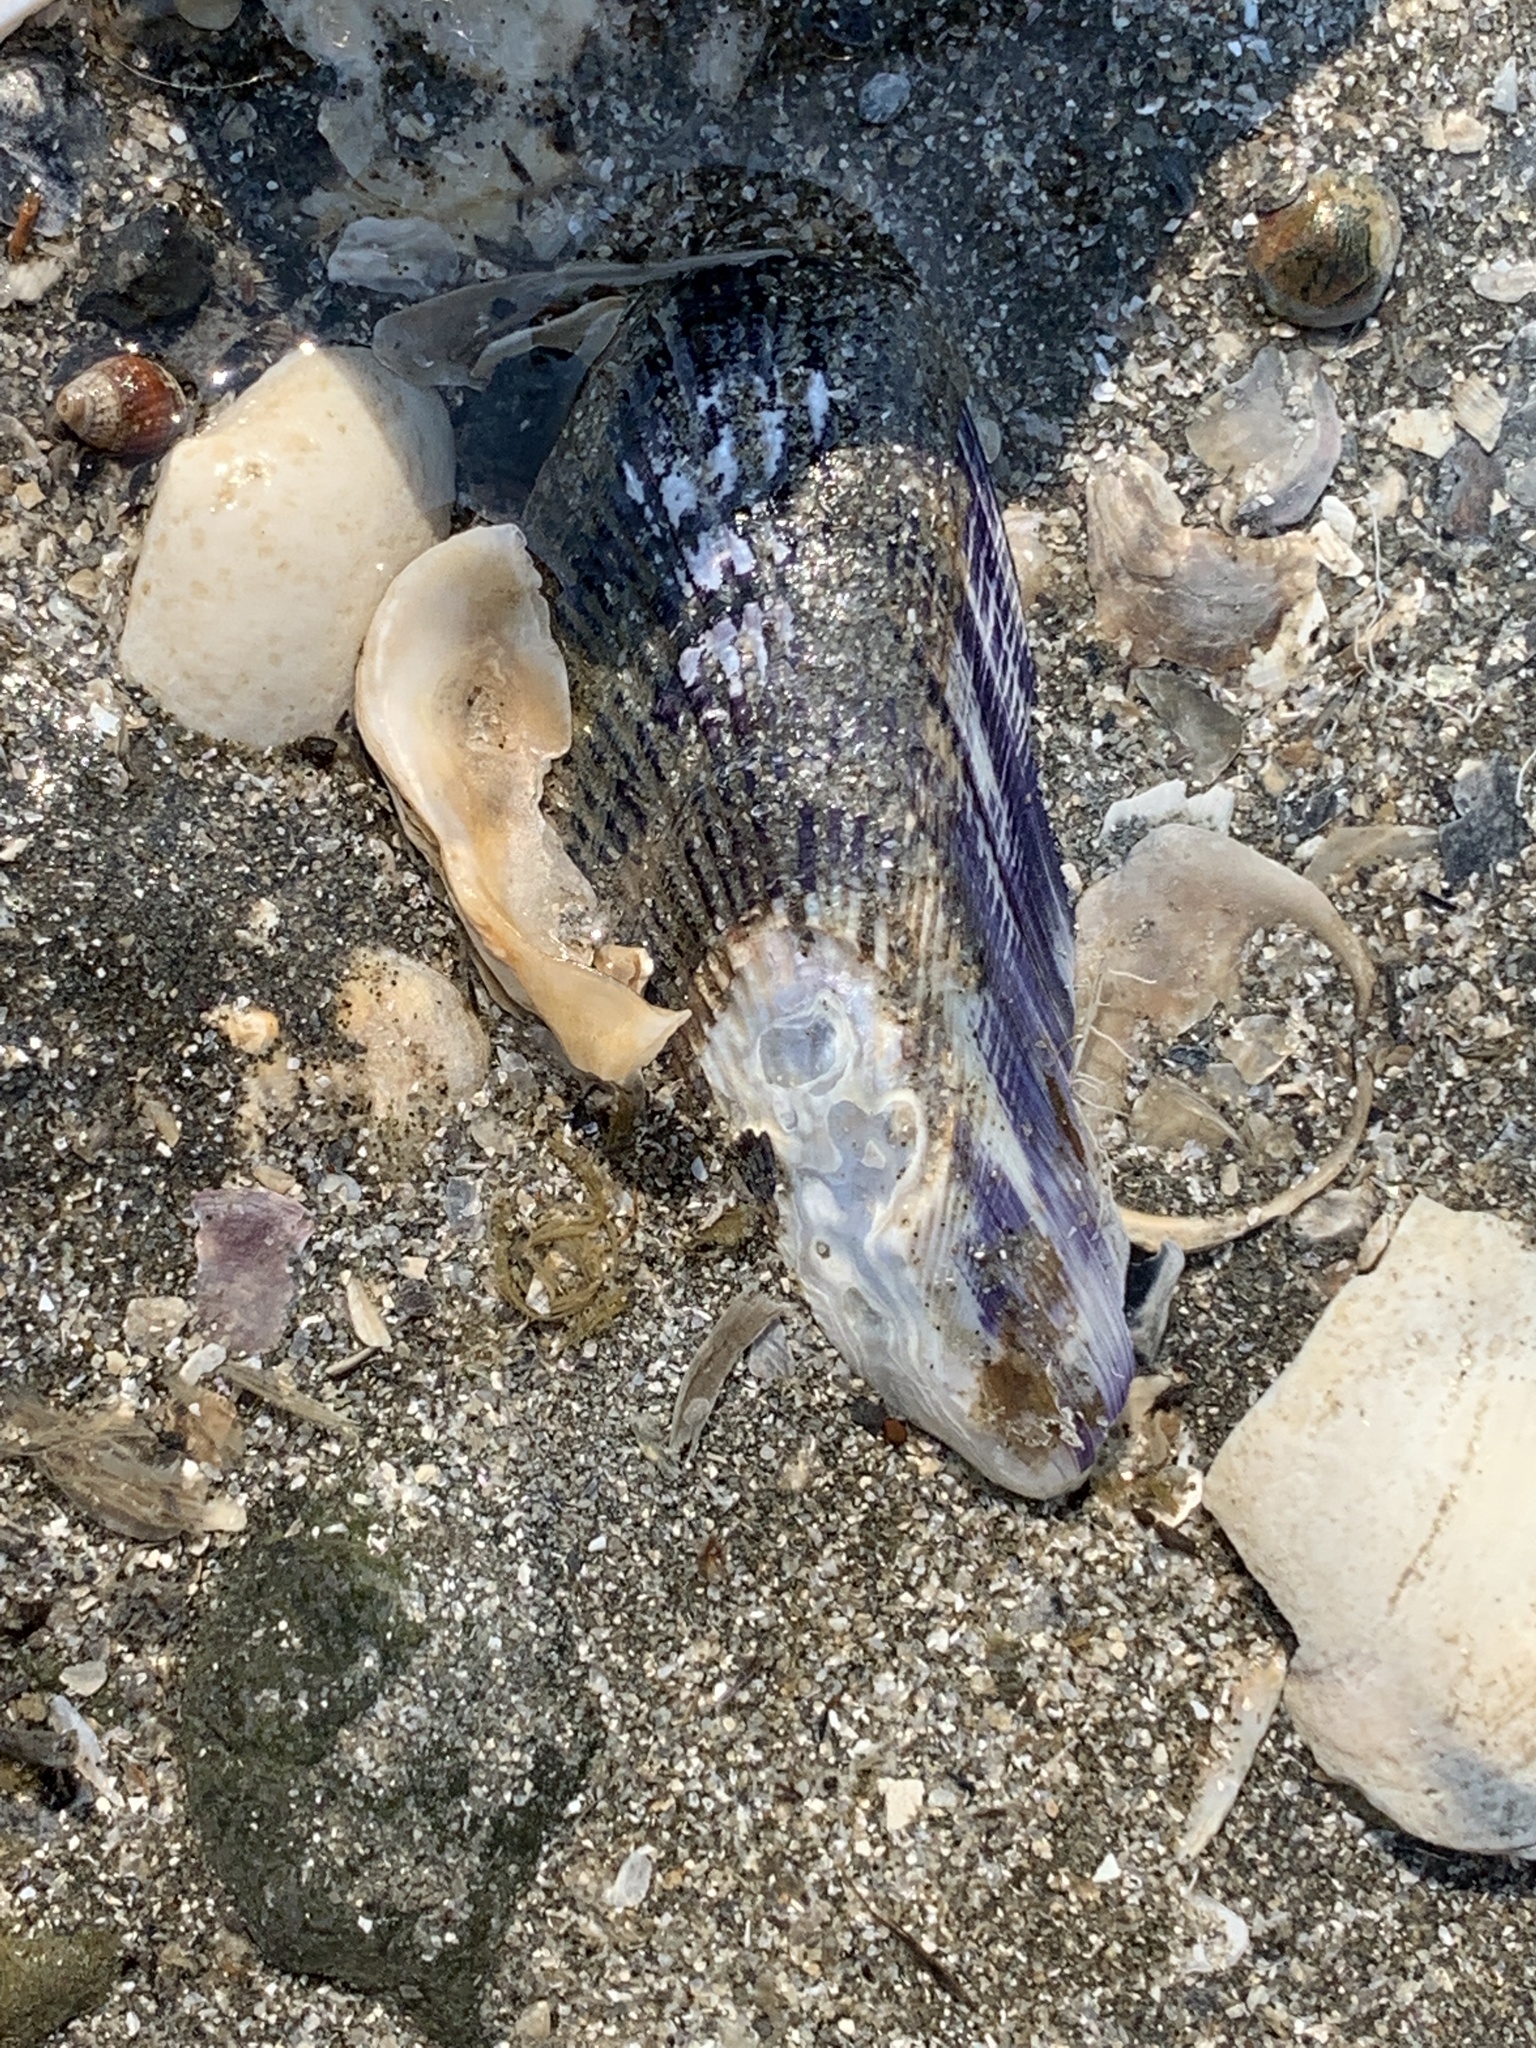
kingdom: Animalia
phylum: Mollusca
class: Bivalvia
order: Mytilida
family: Mytilidae
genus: Geukensia
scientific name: Geukensia demissa
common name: Ribbed mussel
